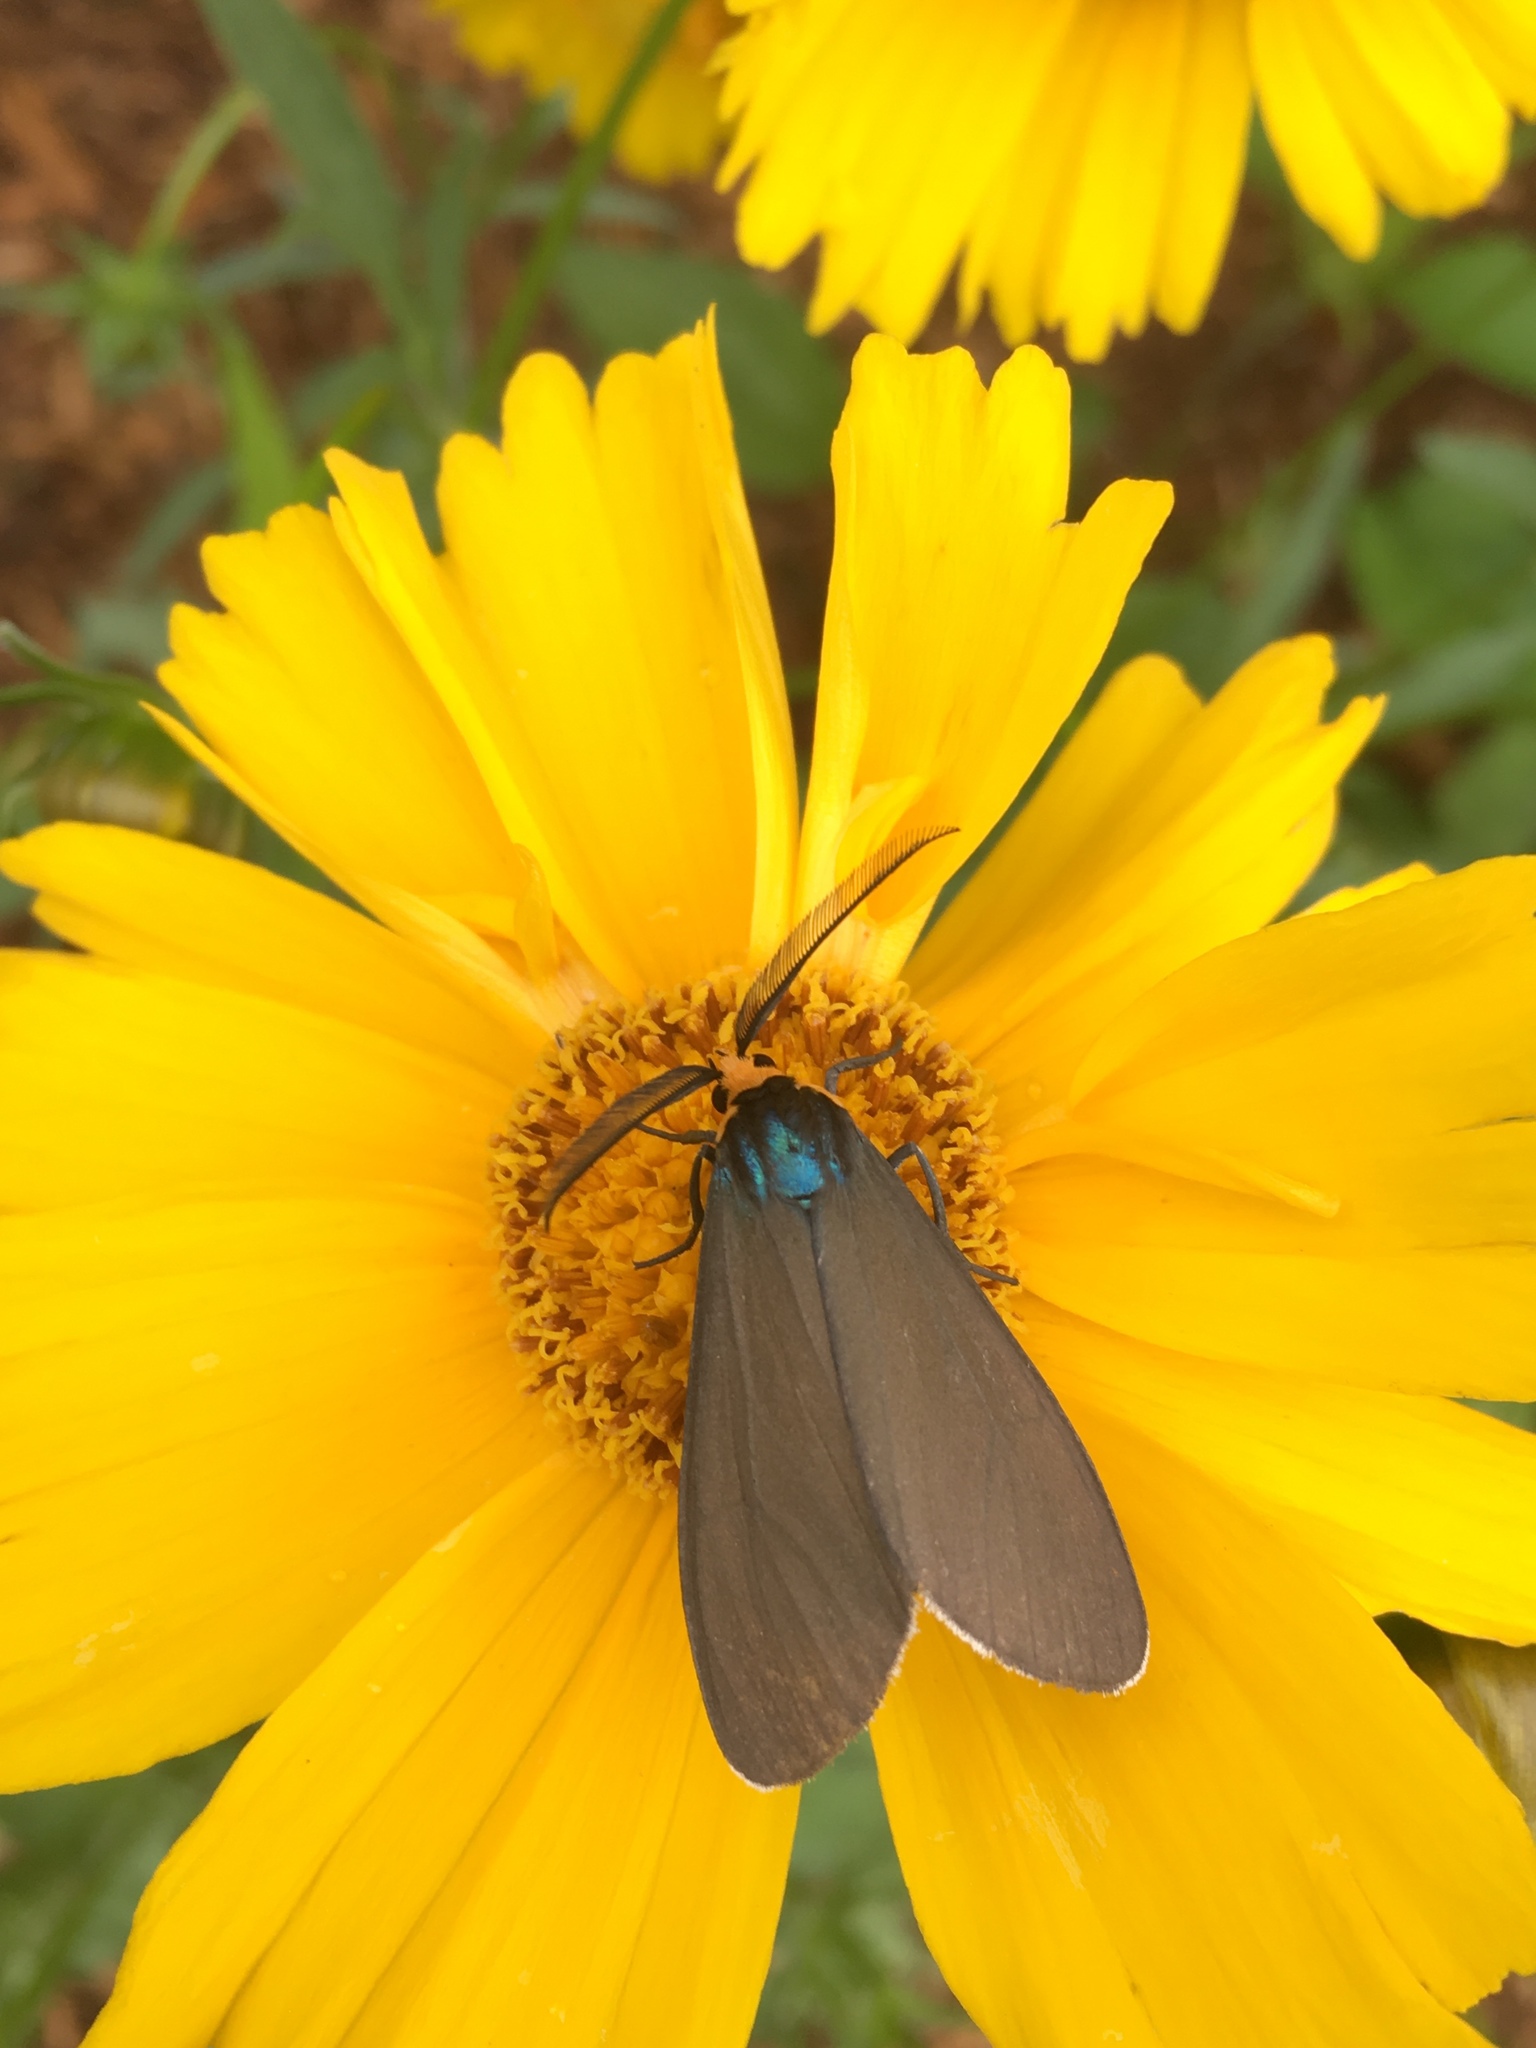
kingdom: Animalia
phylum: Arthropoda
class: Insecta
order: Lepidoptera
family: Erebidae
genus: Ctenucha
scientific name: Ctenucha virginica
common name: Virginia ctenucha moth
